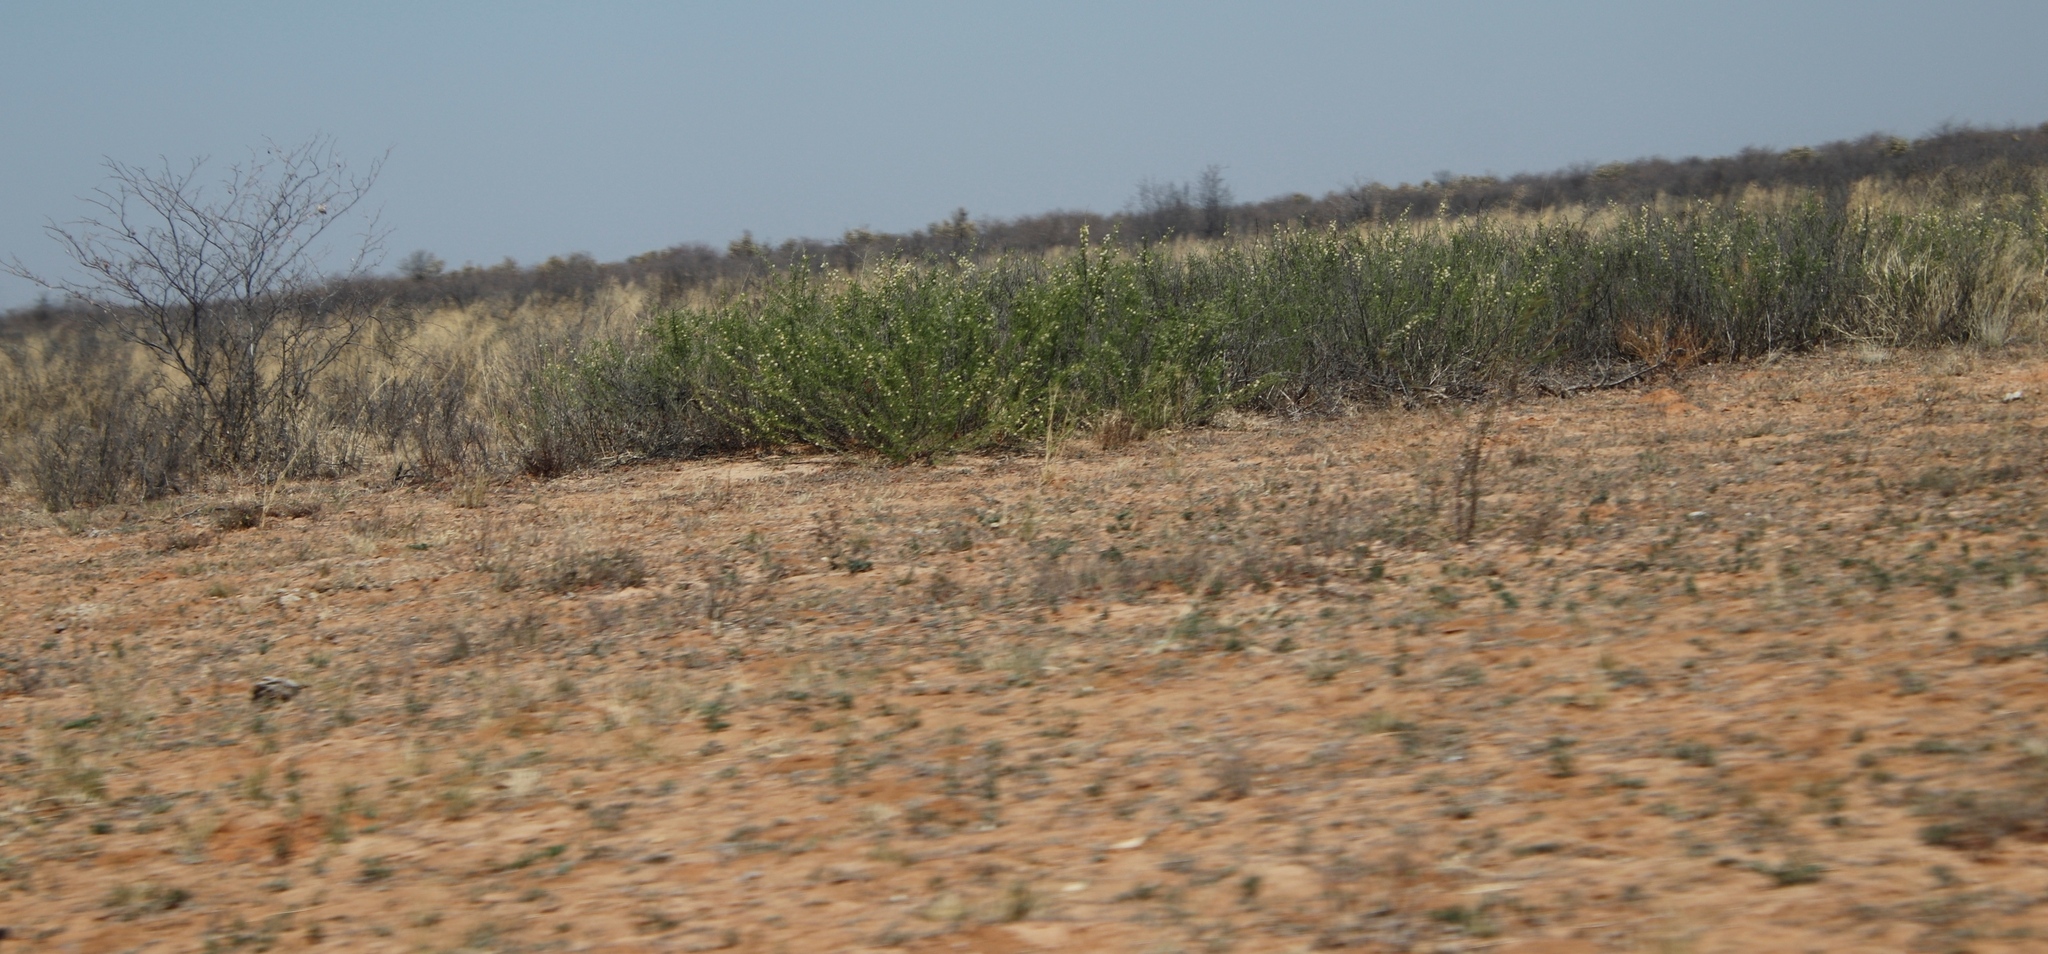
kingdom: Plantae
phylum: Tracheophyta
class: Magnoliopsida
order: Fabales
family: Fabaceae
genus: Vachellia
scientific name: Vachellia hebeclada
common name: Candle thorn
